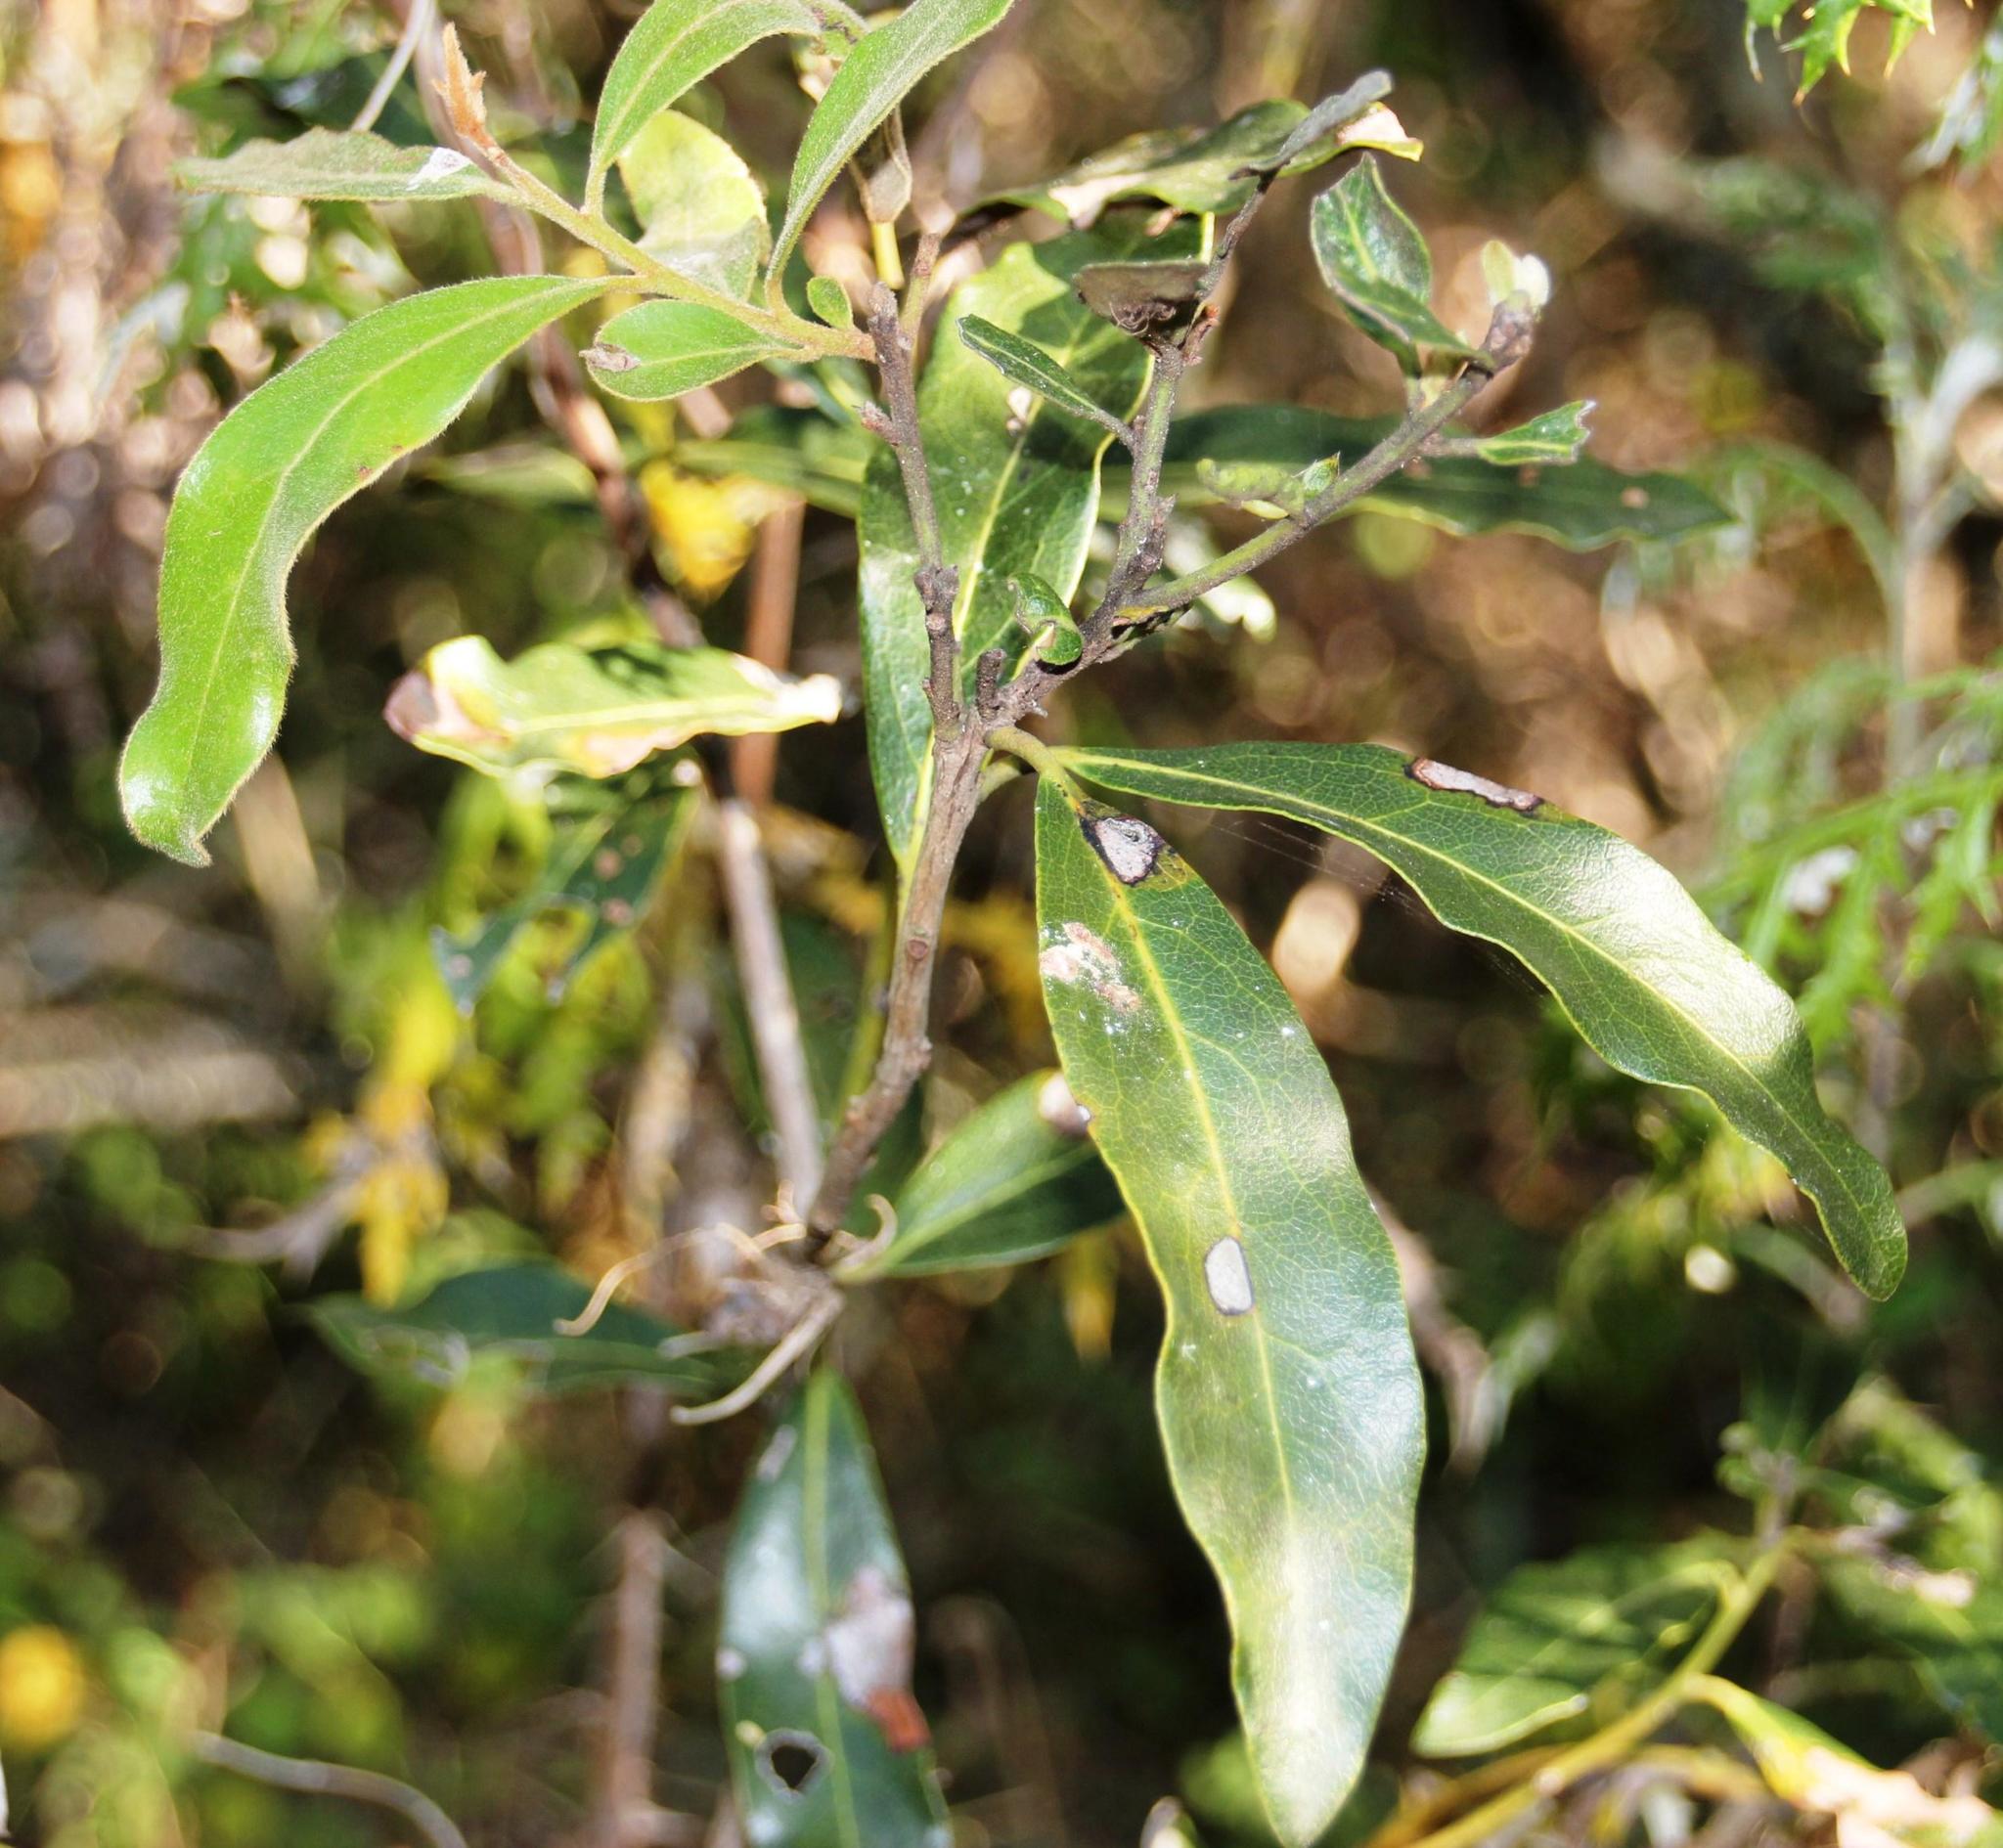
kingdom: Plantae
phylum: Tracheophyta
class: Magnoliopsida
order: Ericales
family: Ebenaceae
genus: Euclea
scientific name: Euclea natalensis
